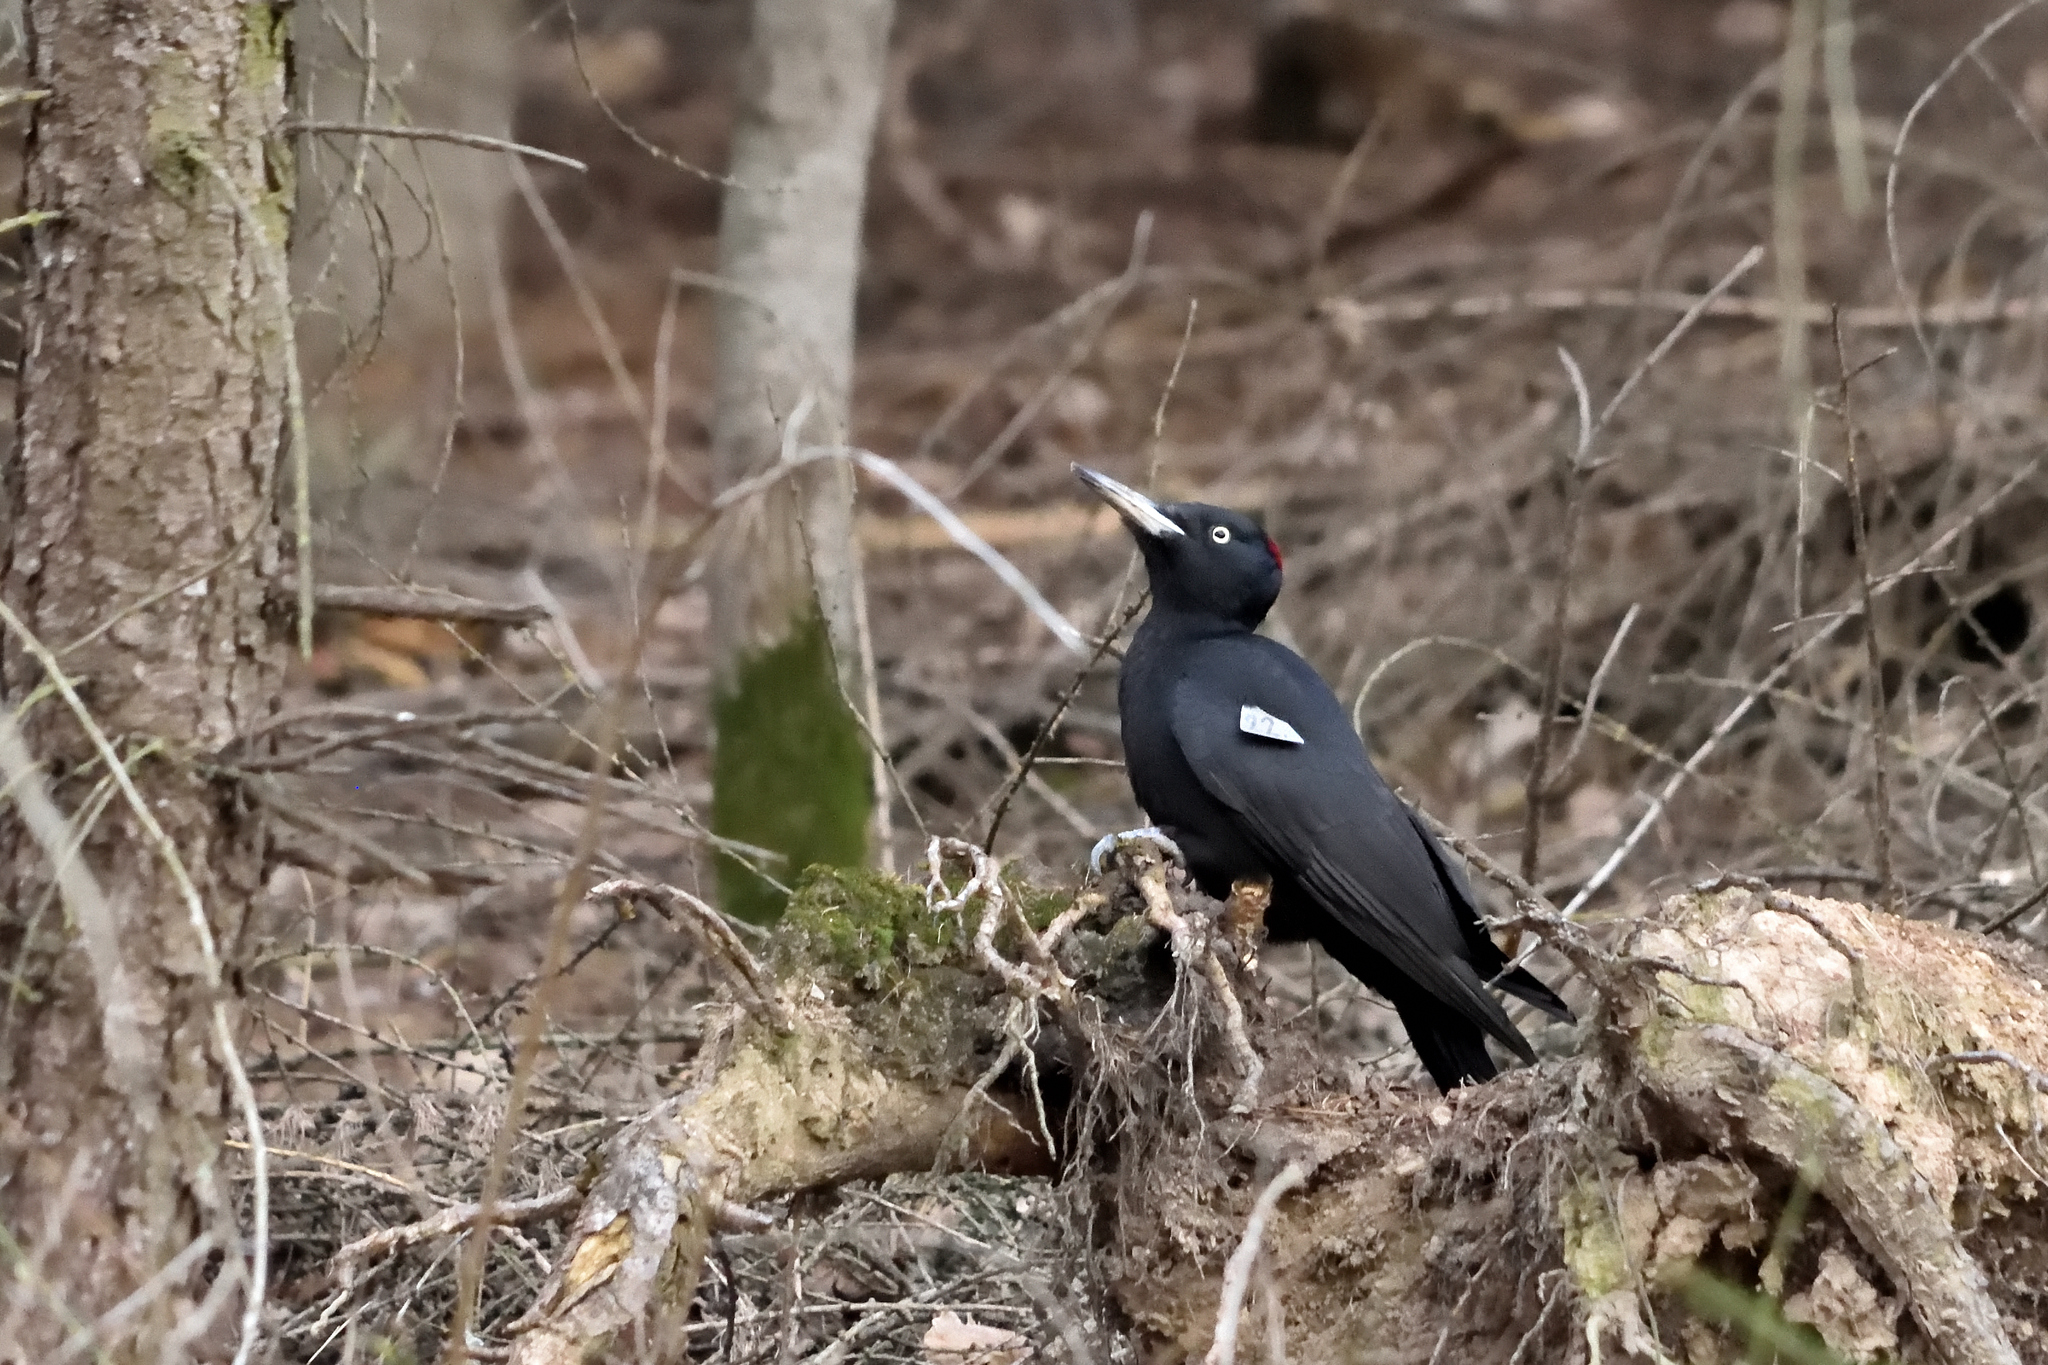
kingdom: Animalia
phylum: Chordata
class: Aves
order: Piciformes
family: Picidae
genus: Dryocopus
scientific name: Dryocopus martius
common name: Black woodpecker
